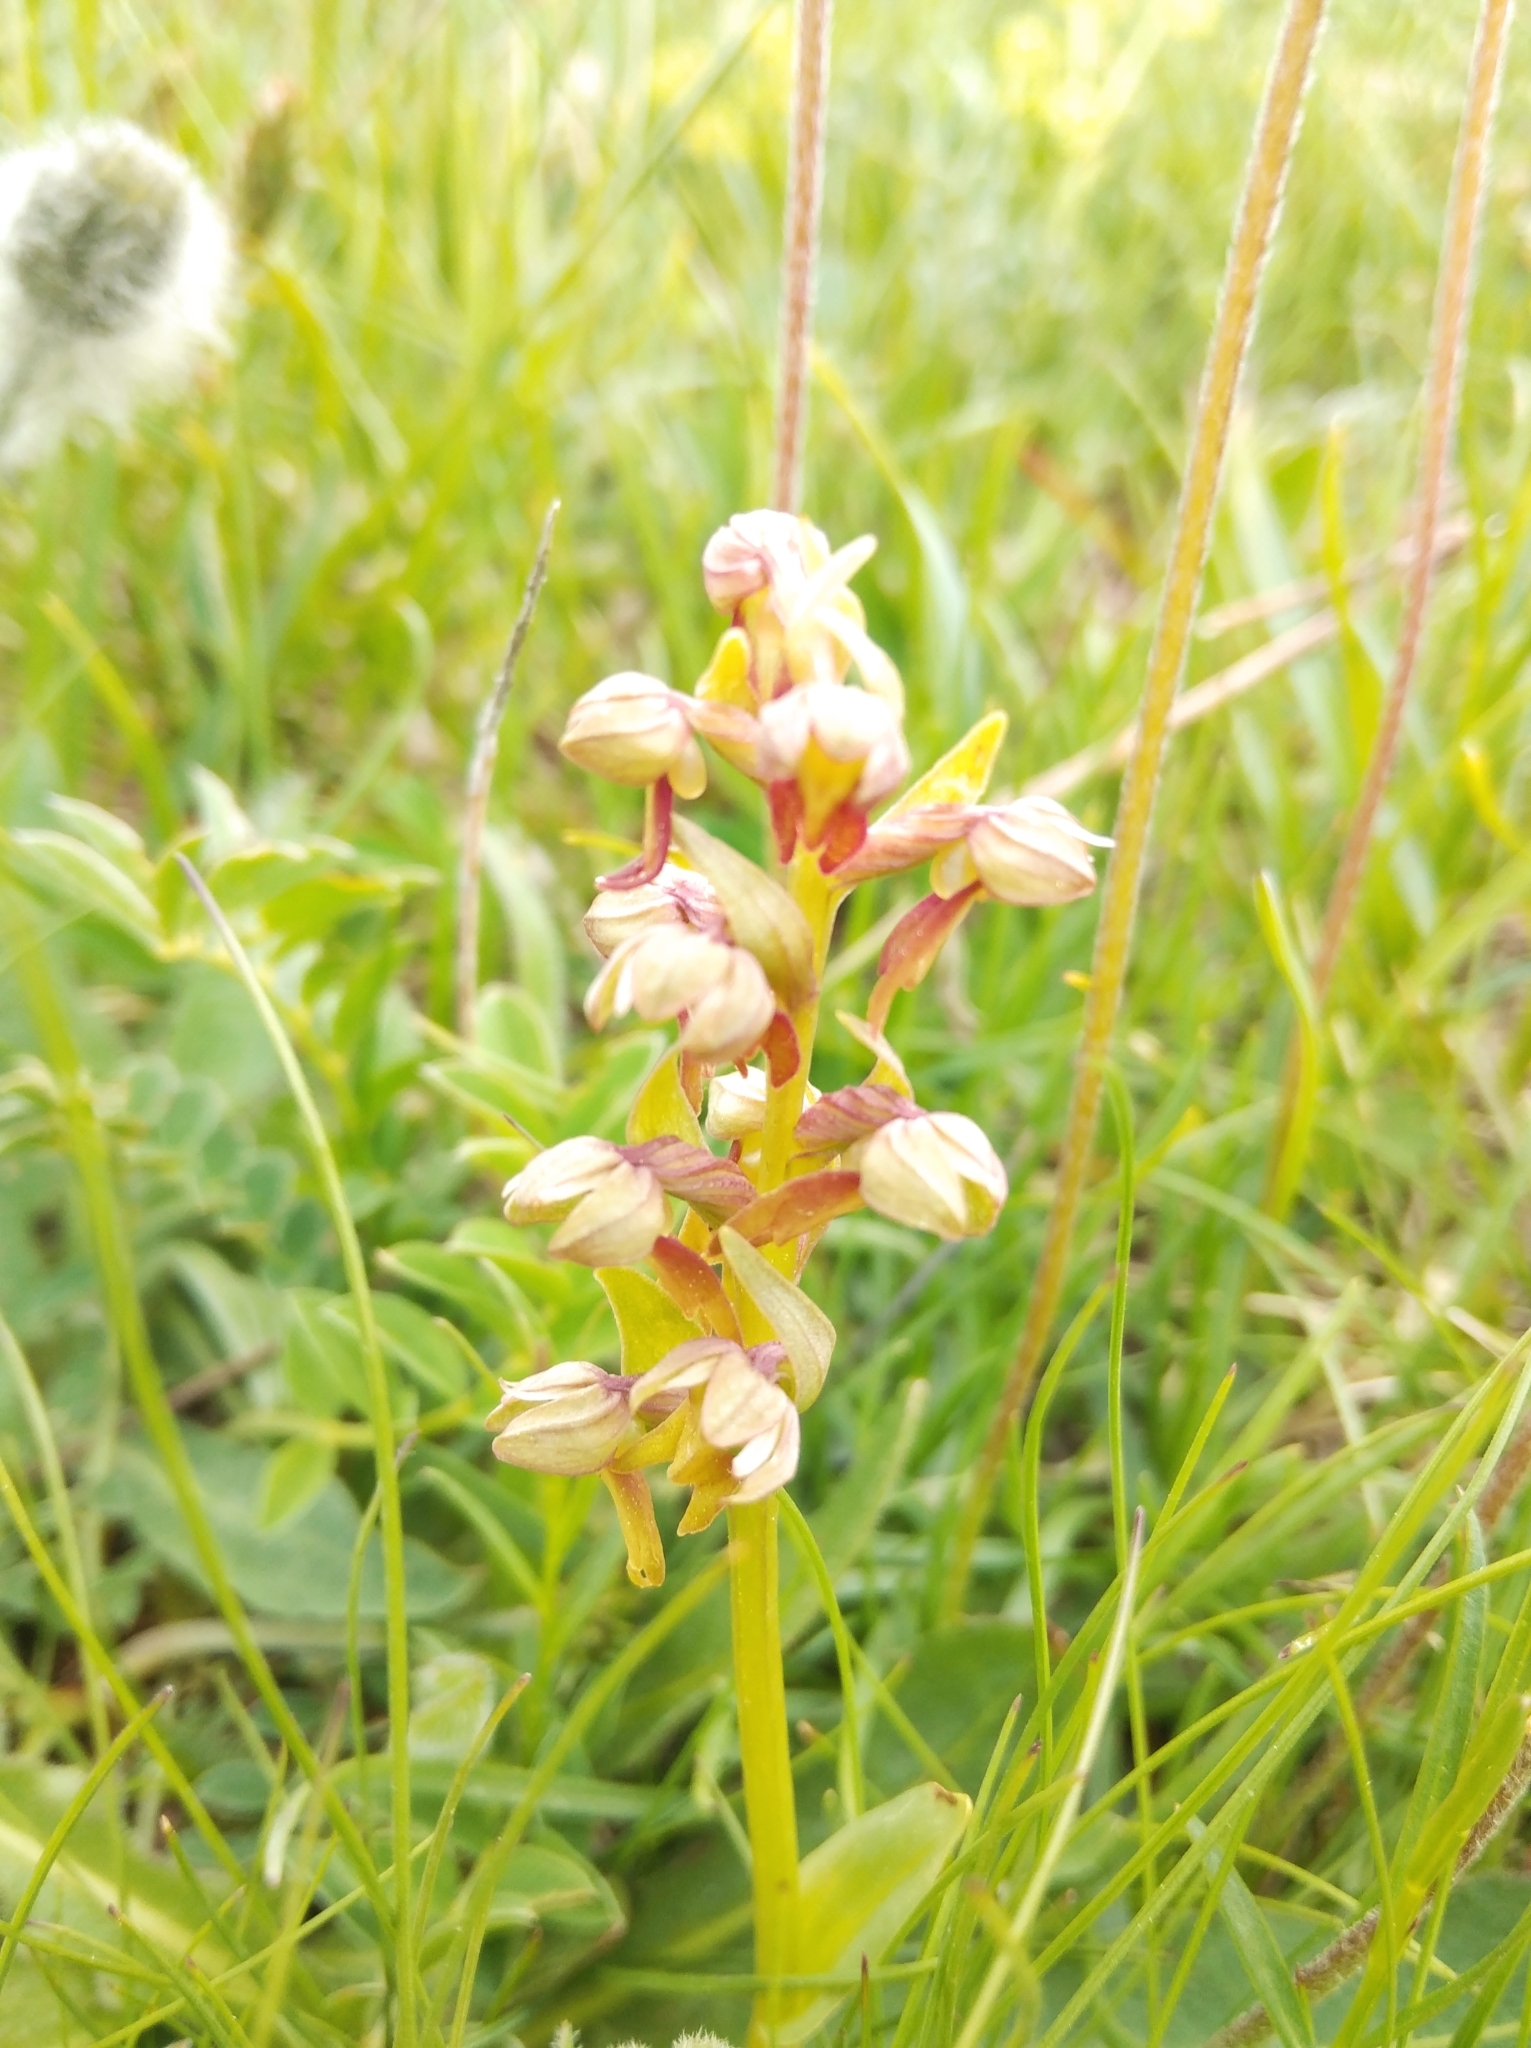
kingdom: Plantae
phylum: Tracheophyta
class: Liliopsida
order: Asparagales
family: Orchidaceae
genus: Dactylorhiza
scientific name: Dactylorhiza viridis
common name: Longbract frog orchid
